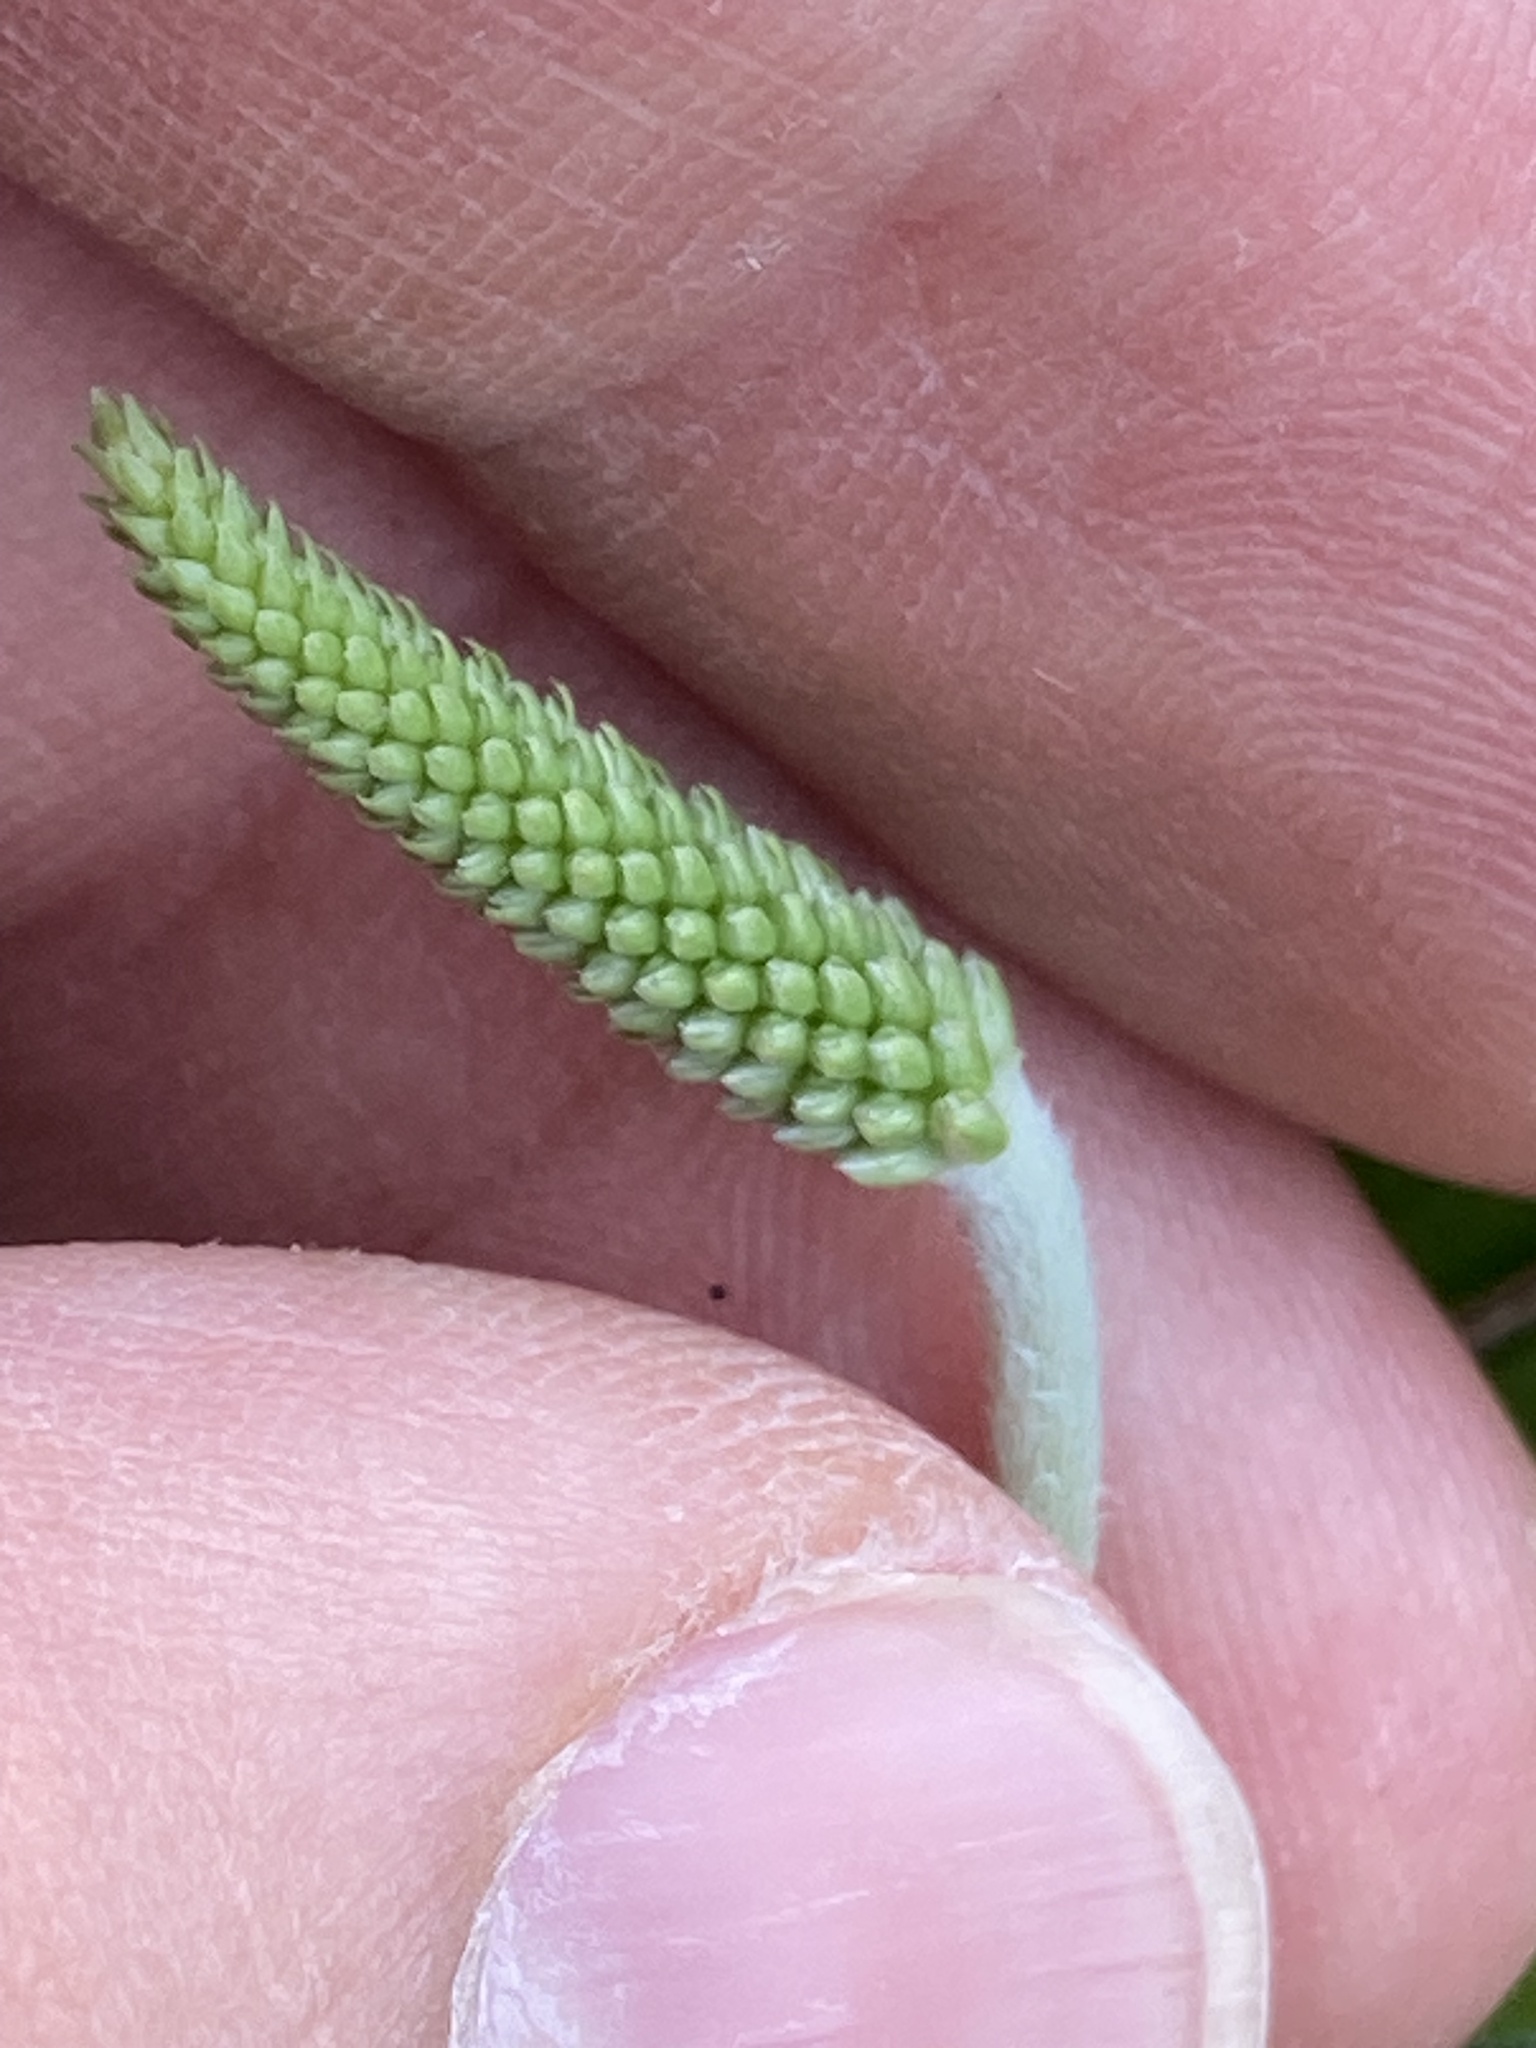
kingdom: Plantae
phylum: Tracheophyta
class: Magnoliopsida
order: Lamiales
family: Plantaginaceae
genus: Plantago
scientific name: Plantago media
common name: Hoary plantain
